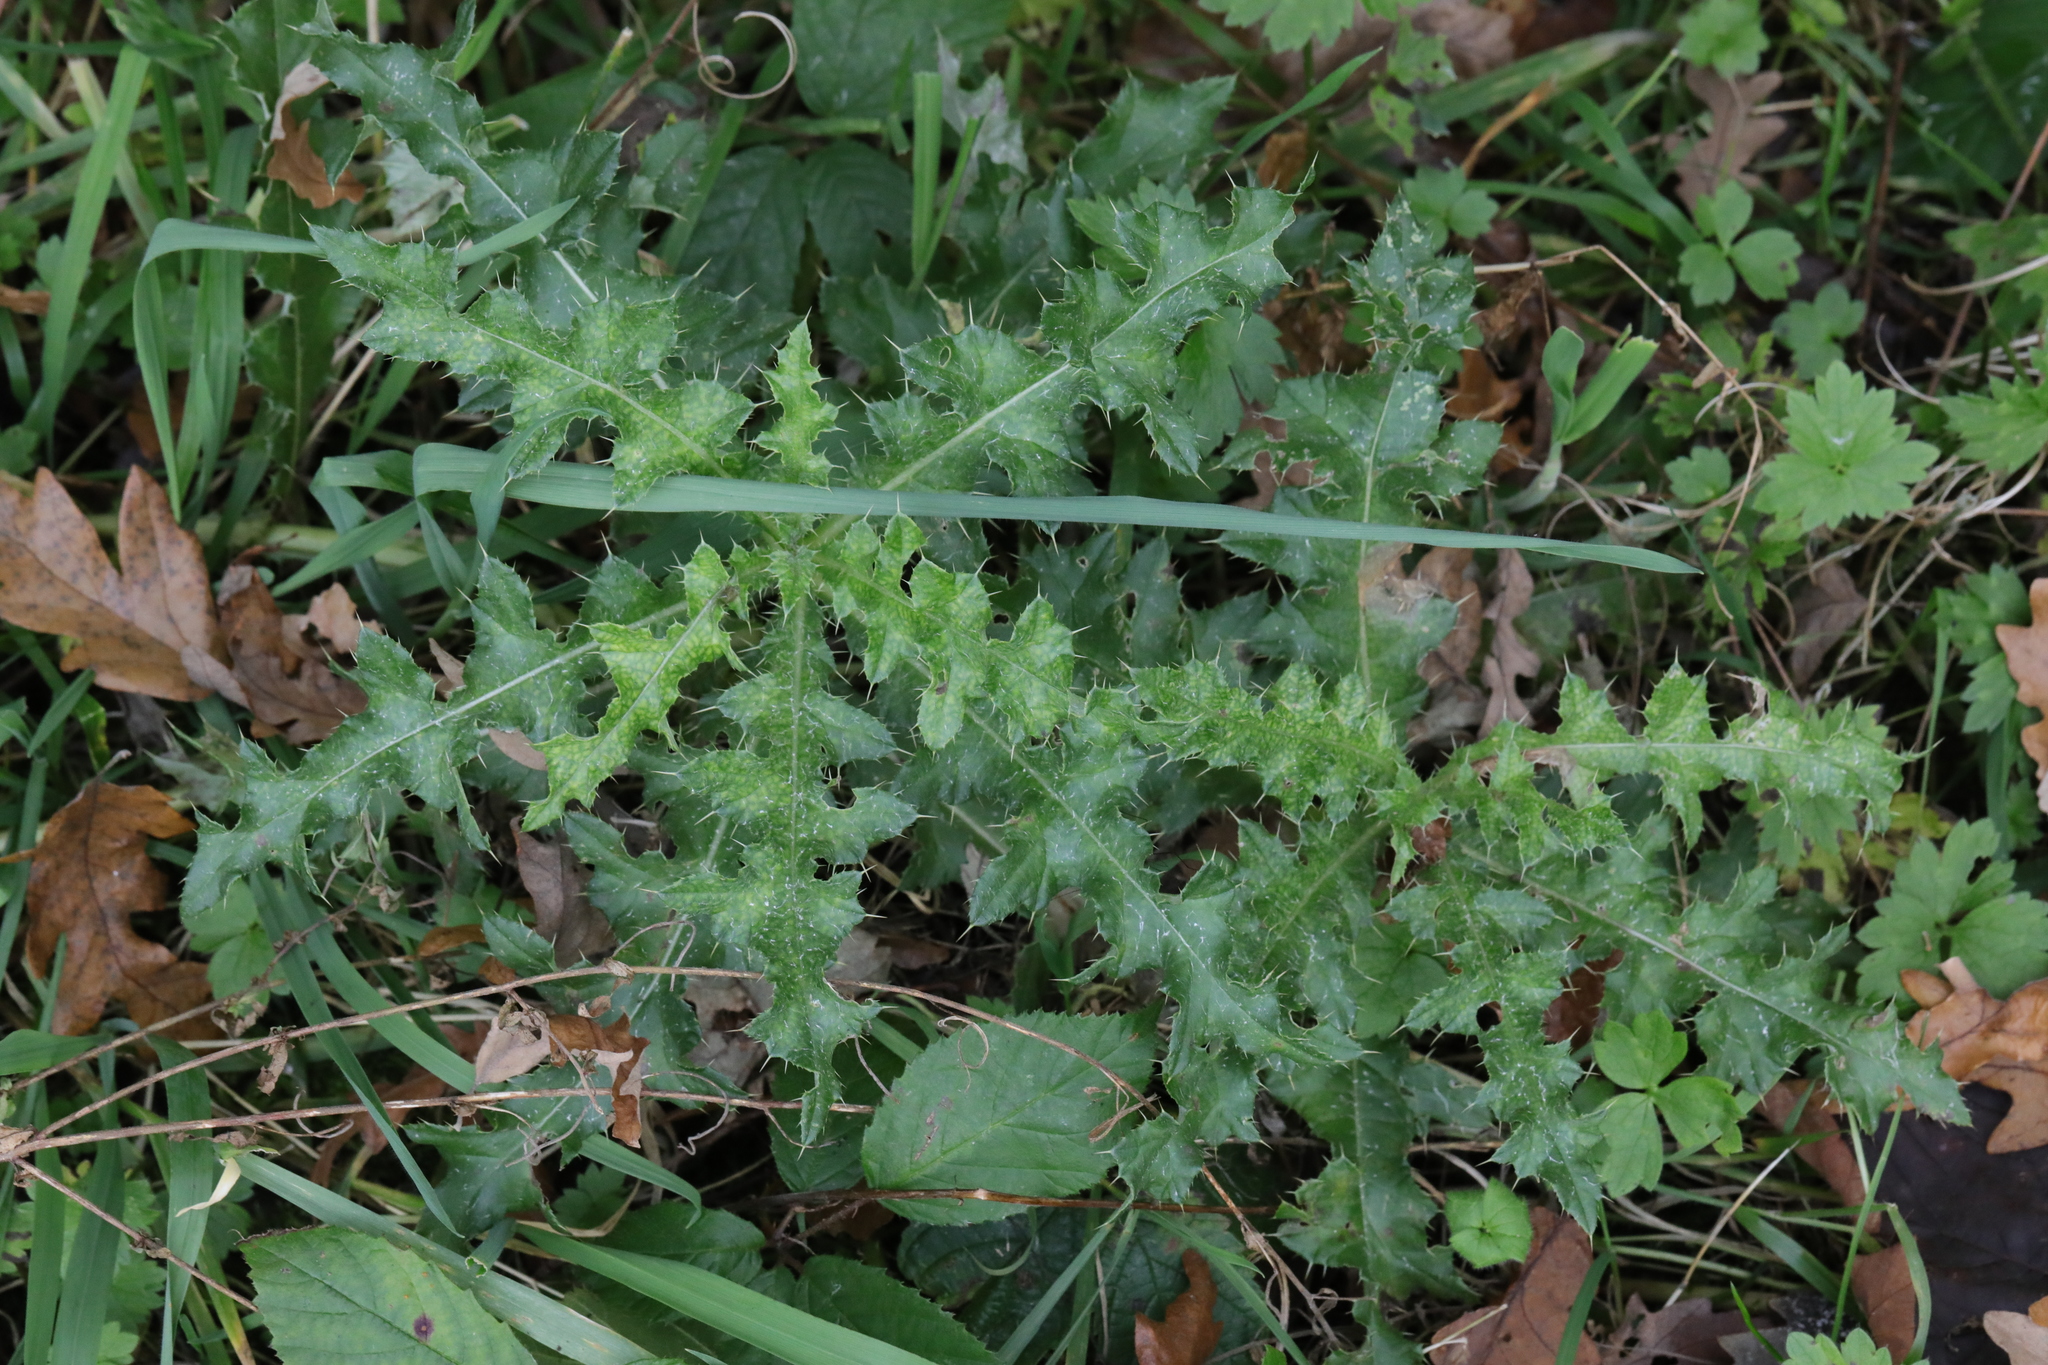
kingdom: Plantae
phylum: Tracheophyta
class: Magnoliopsida
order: Asterales
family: Asteraceae
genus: Cirsium
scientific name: Cirsium arvense
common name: Creeping thistle
